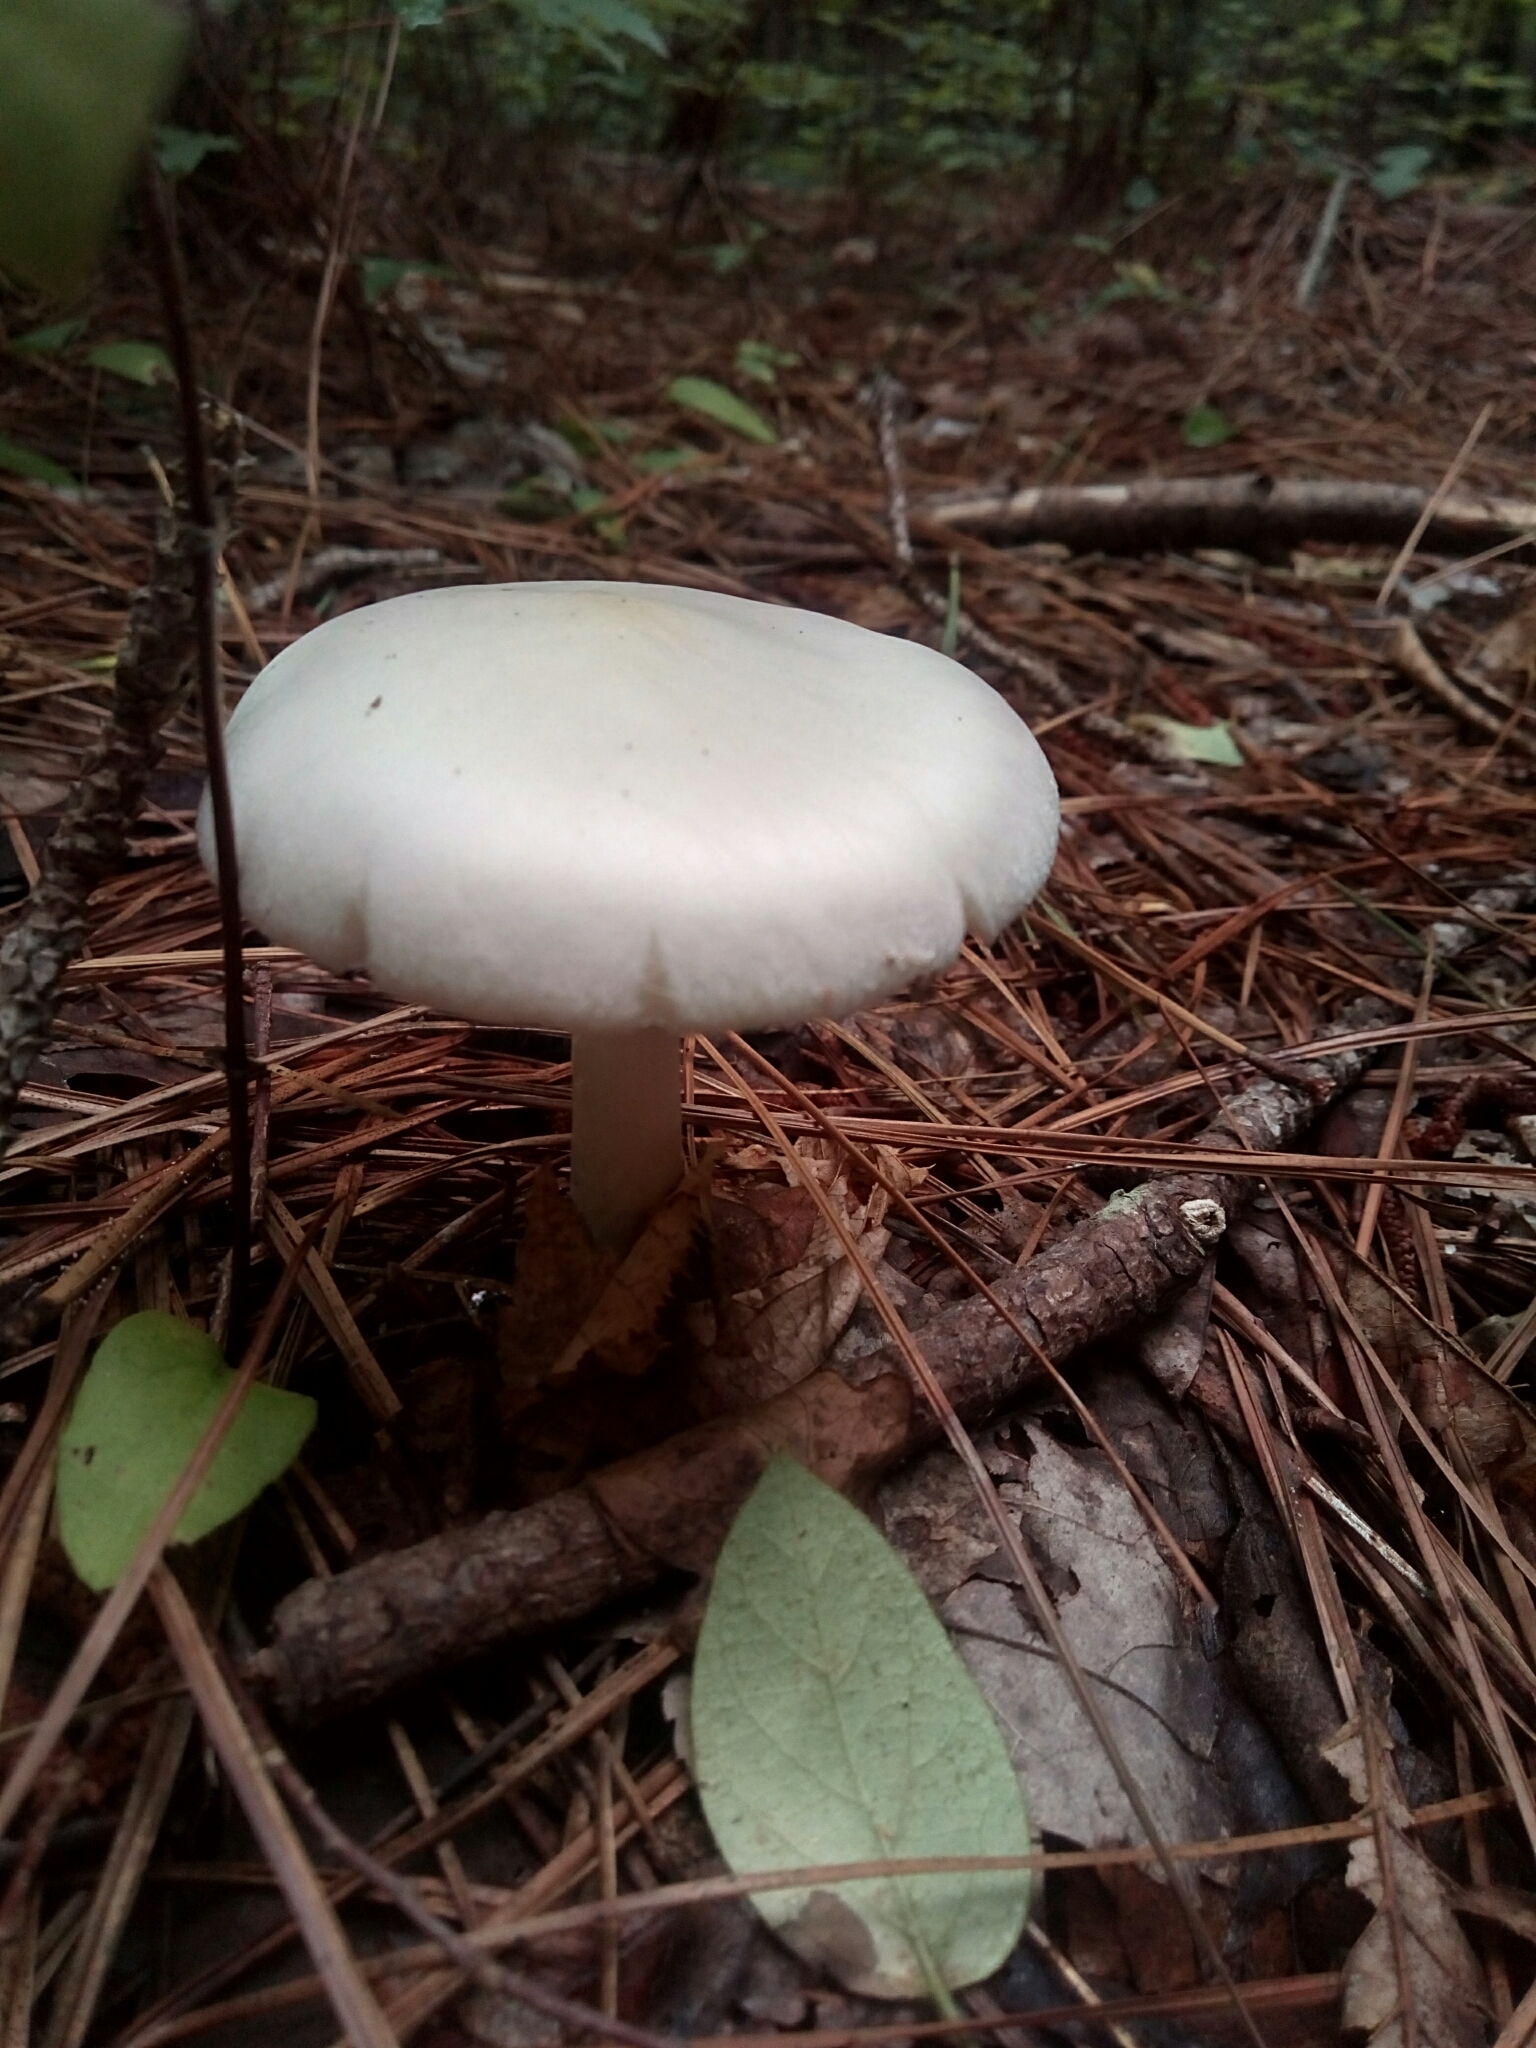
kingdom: Fungi
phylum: Basidiomycota
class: Agaricomycetes
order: Agaricales
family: Amanitaceae
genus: Amanita
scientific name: Amanita bisporigera
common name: Eastern north american destroying angel
